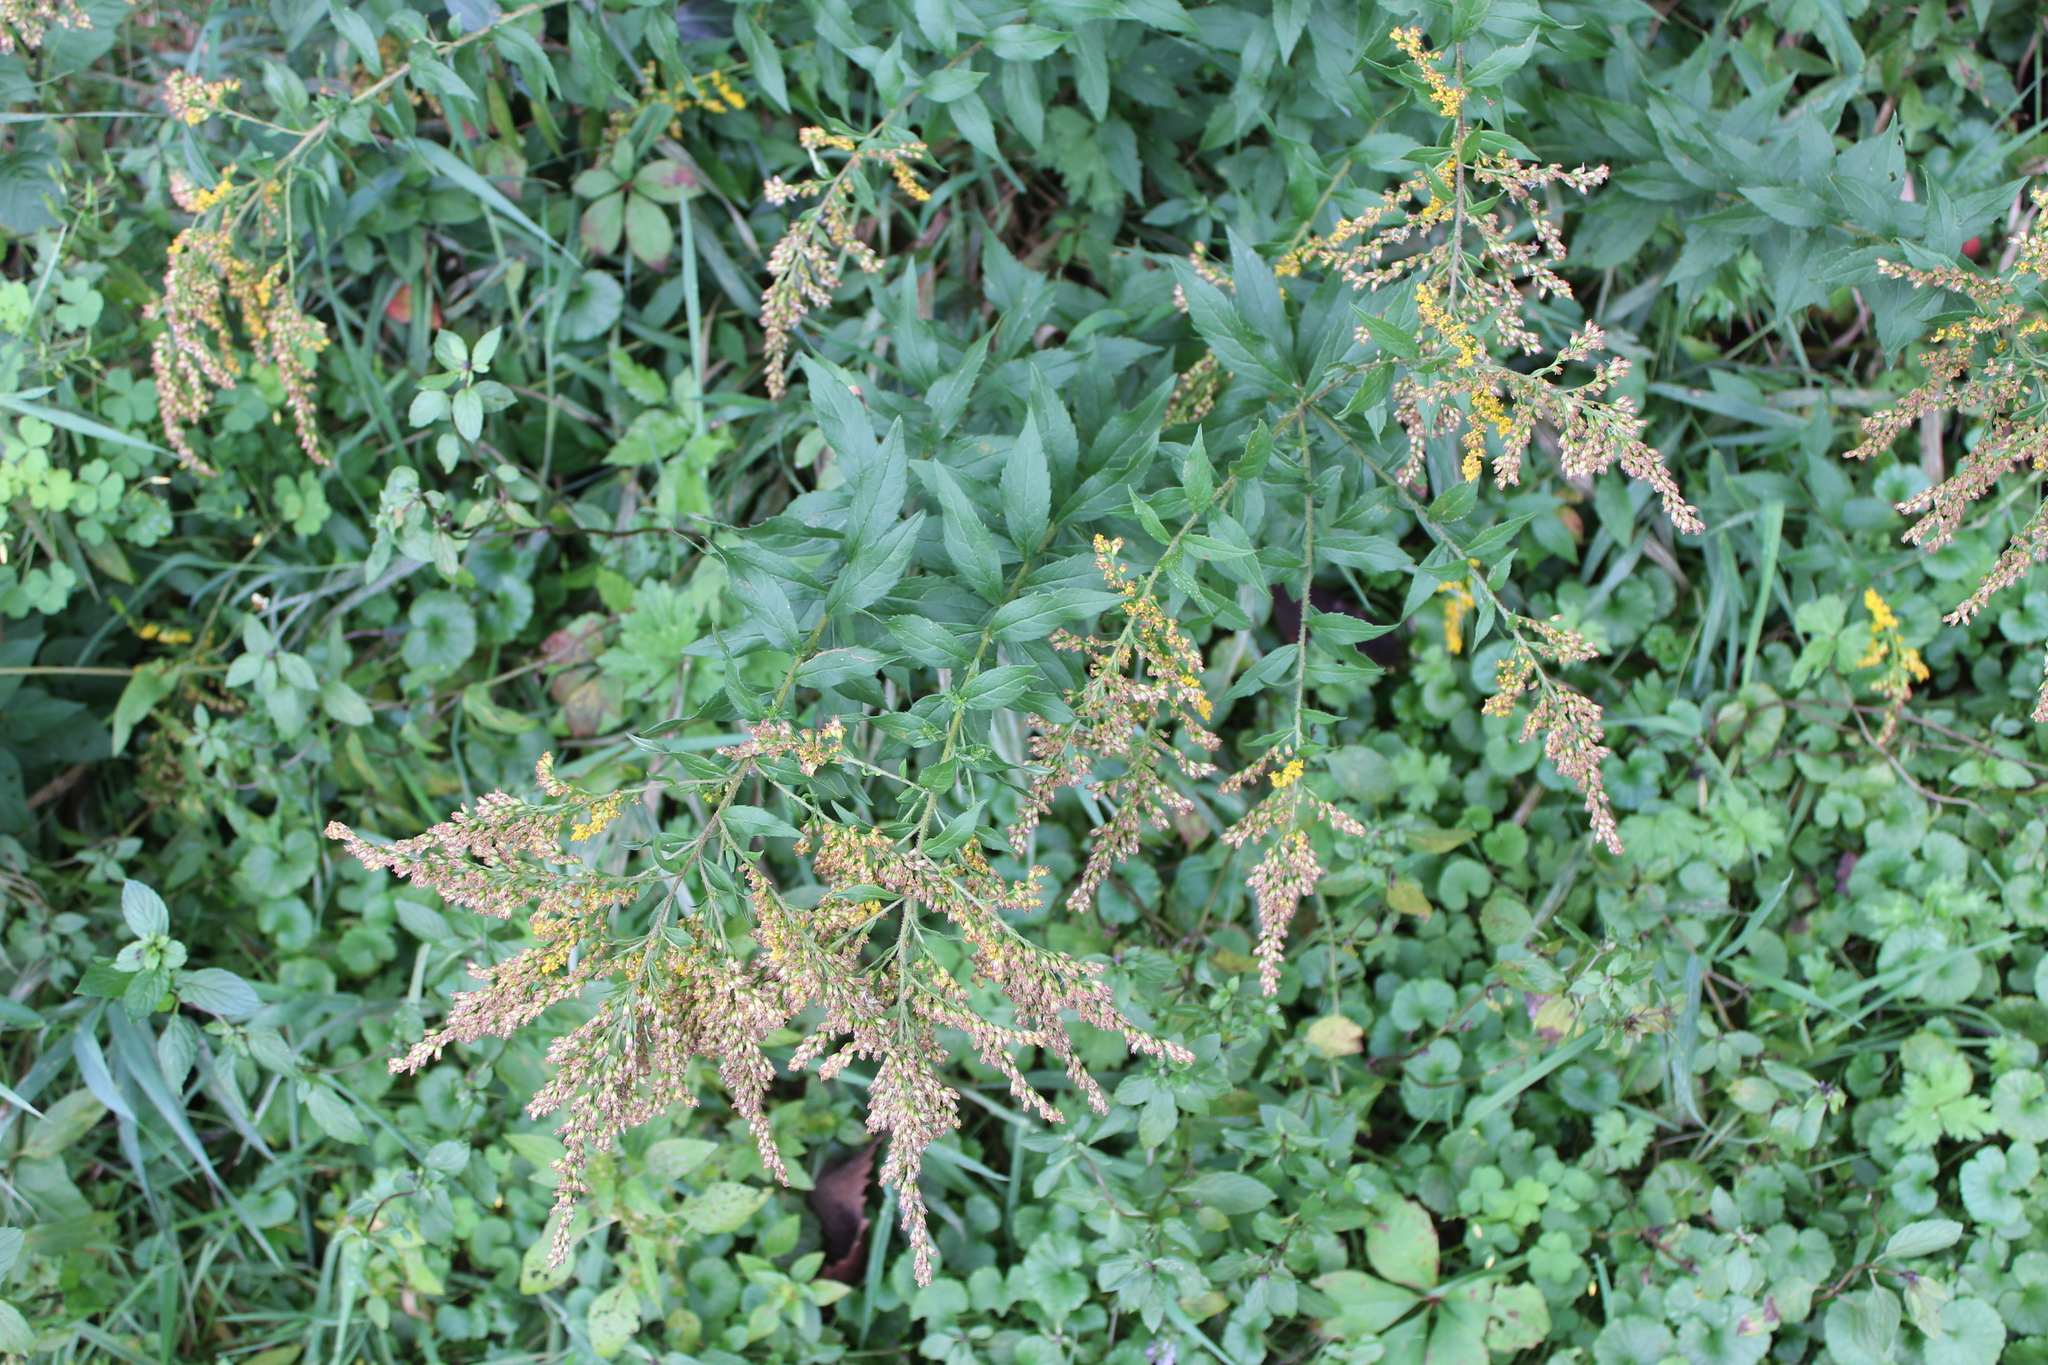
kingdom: Plantae
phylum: Tracheophyta
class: Magnoliopsida
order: Asterales
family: Asteraceae
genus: Solidago
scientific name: Solidago rugosa
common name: Rough-stemmed goldenrod
